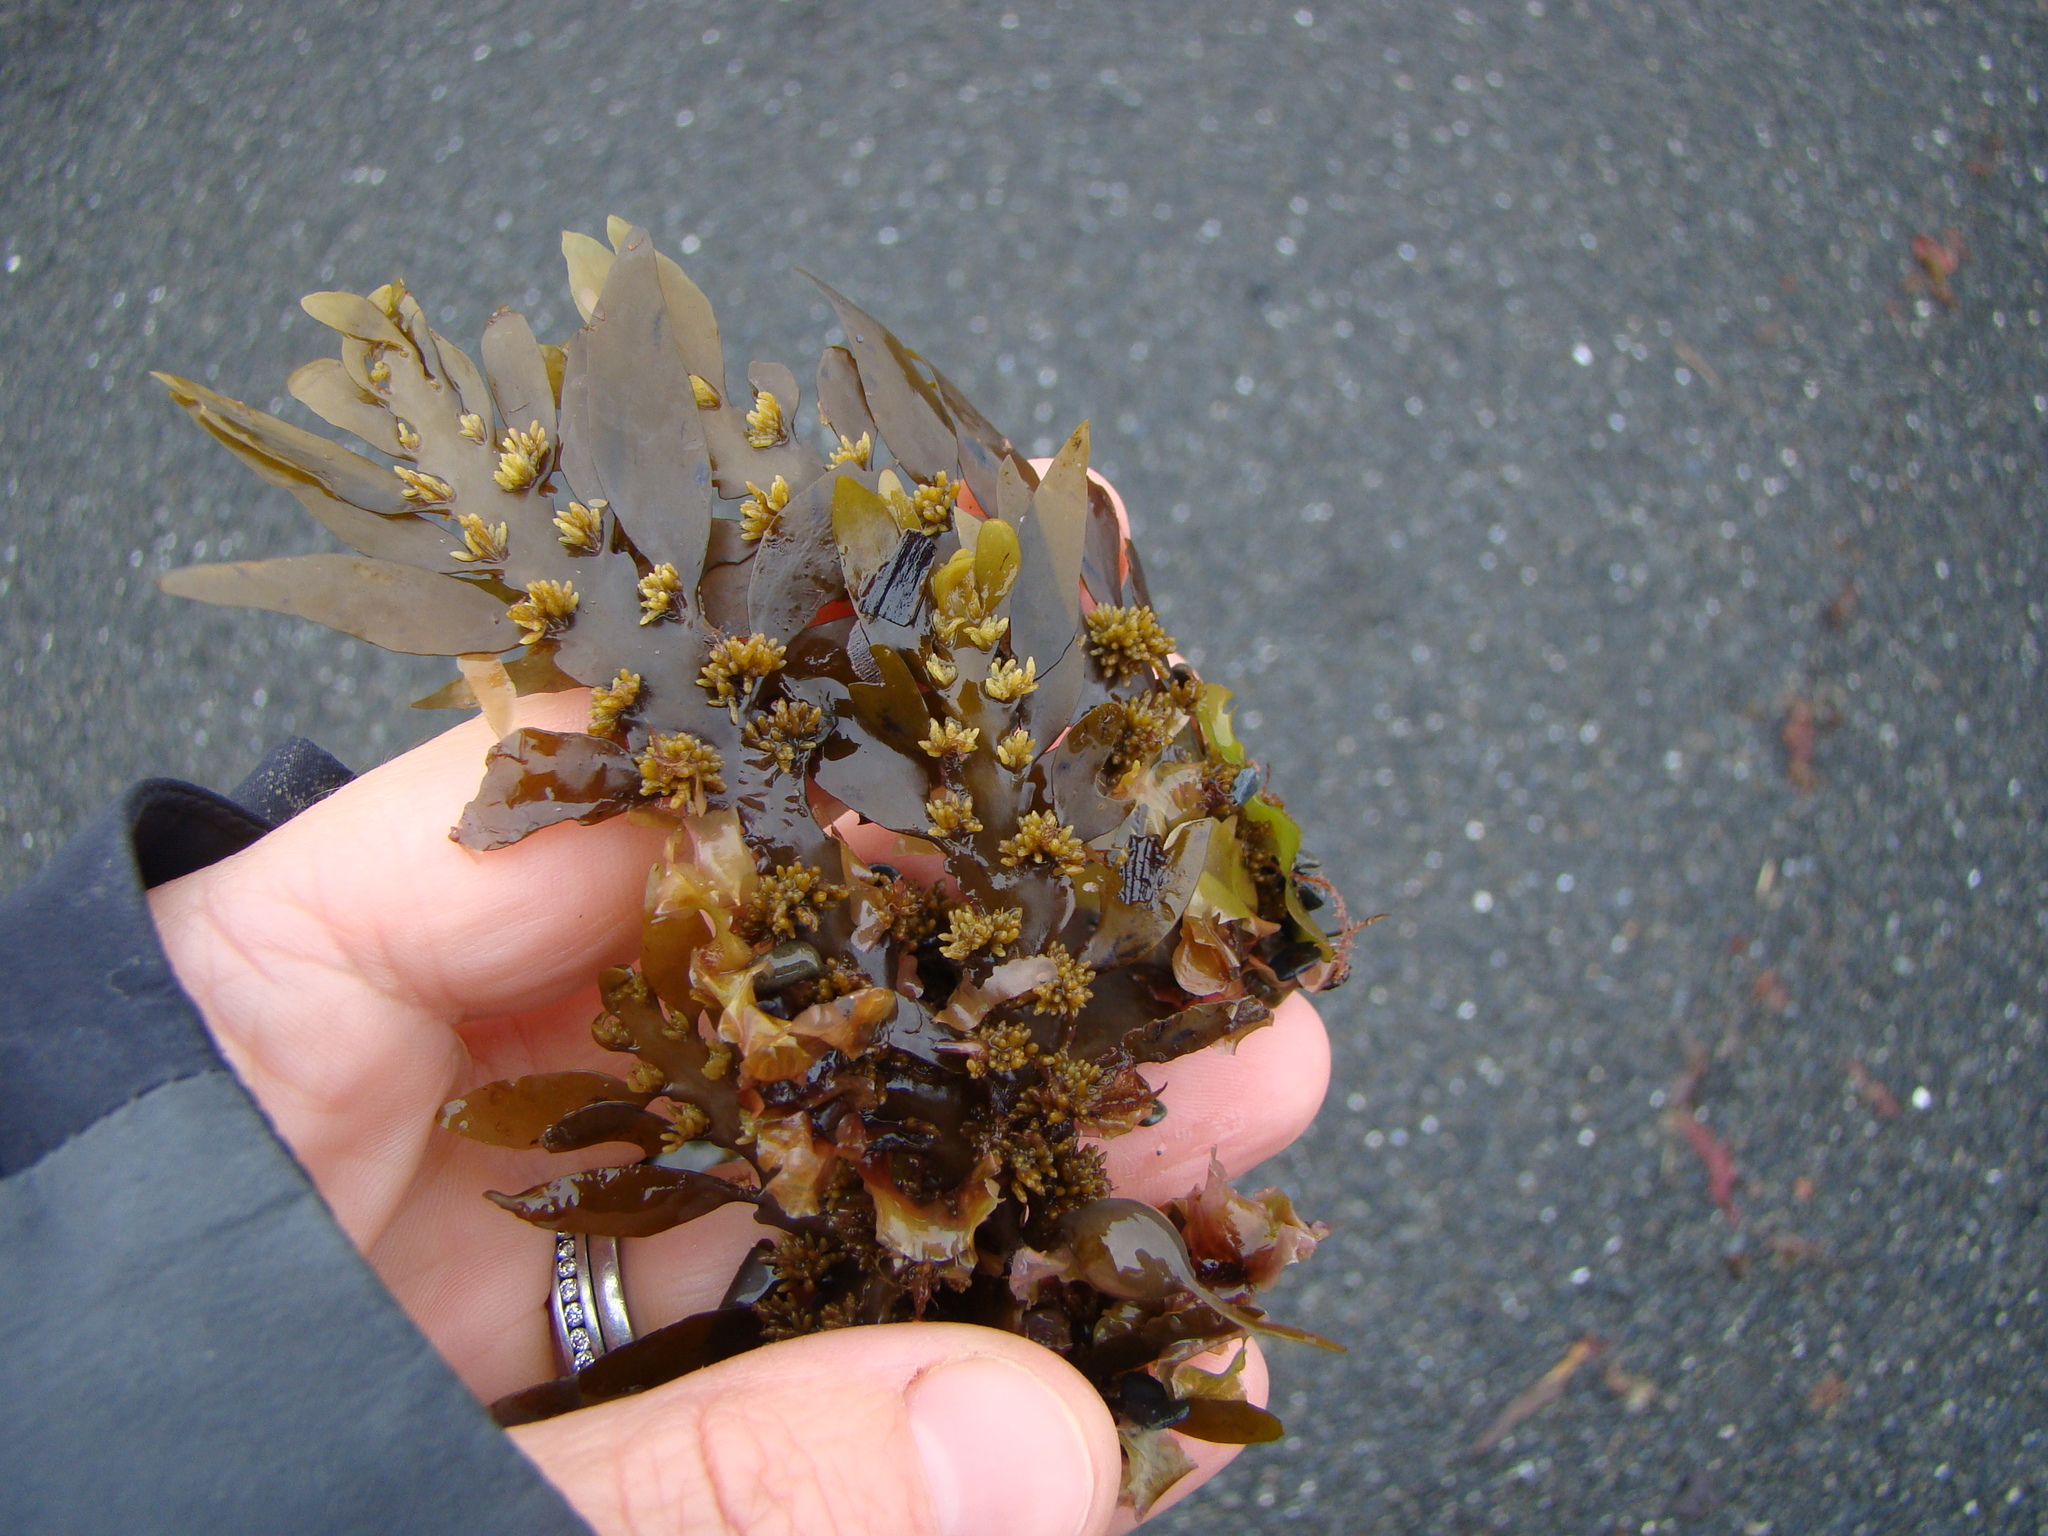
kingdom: Chromista
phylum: Ochrophyta
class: Phaeophyceae
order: Fucales
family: Sargassaceae
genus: Carpophyllum
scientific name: Carpophyllum maschalocarpum
